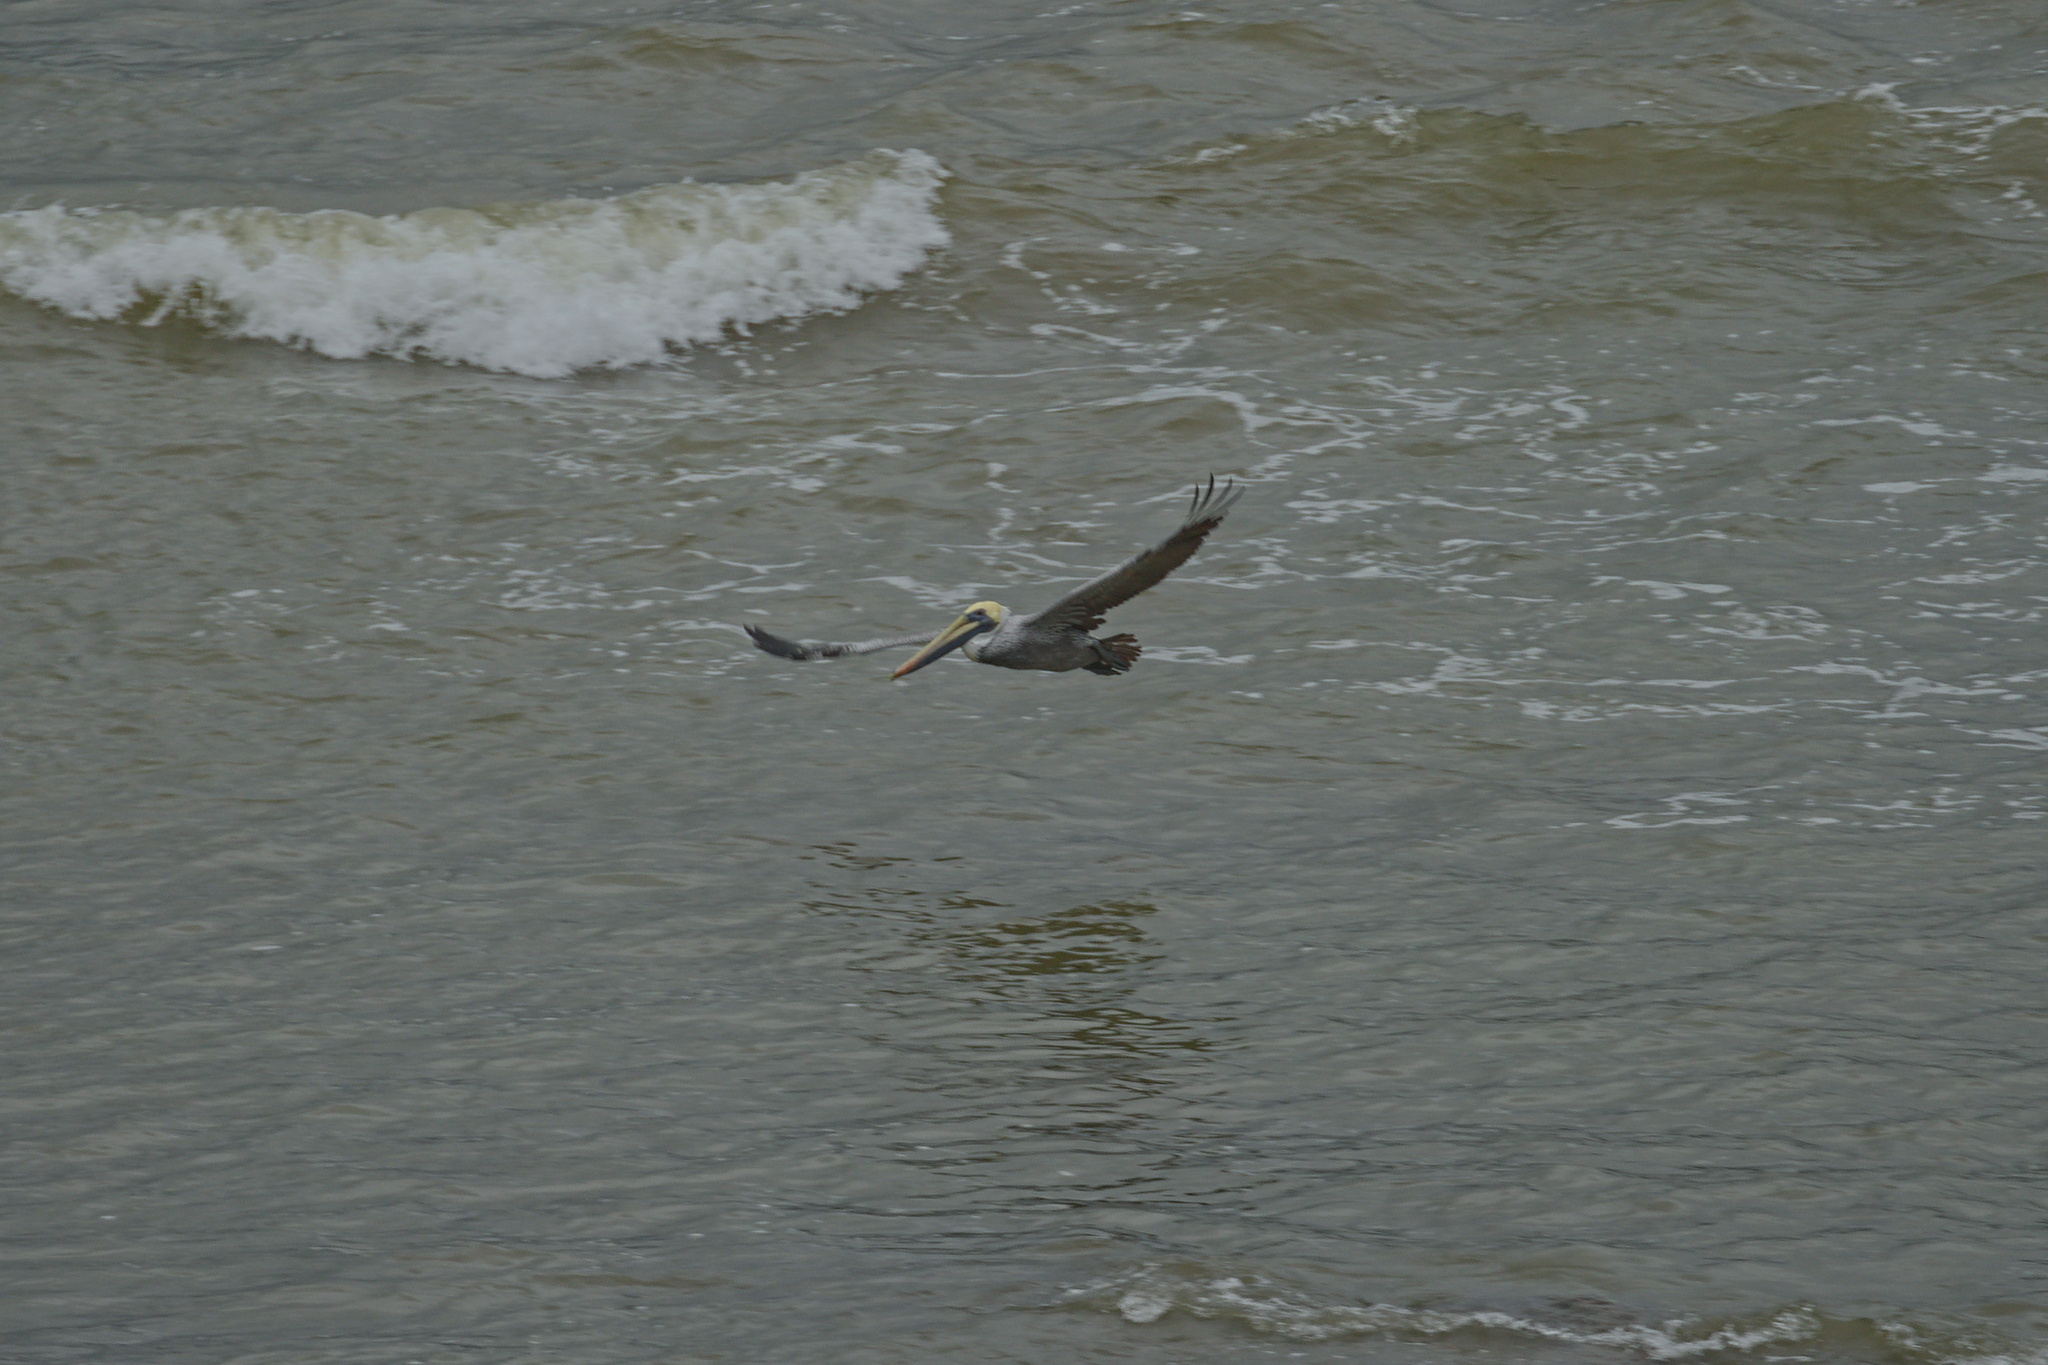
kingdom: Animalia
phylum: Chordata
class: Aves
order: Pelecaniformes
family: Pelecanidae
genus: Pelecanus
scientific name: Pelecanus occidentalis
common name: Brown pelican
